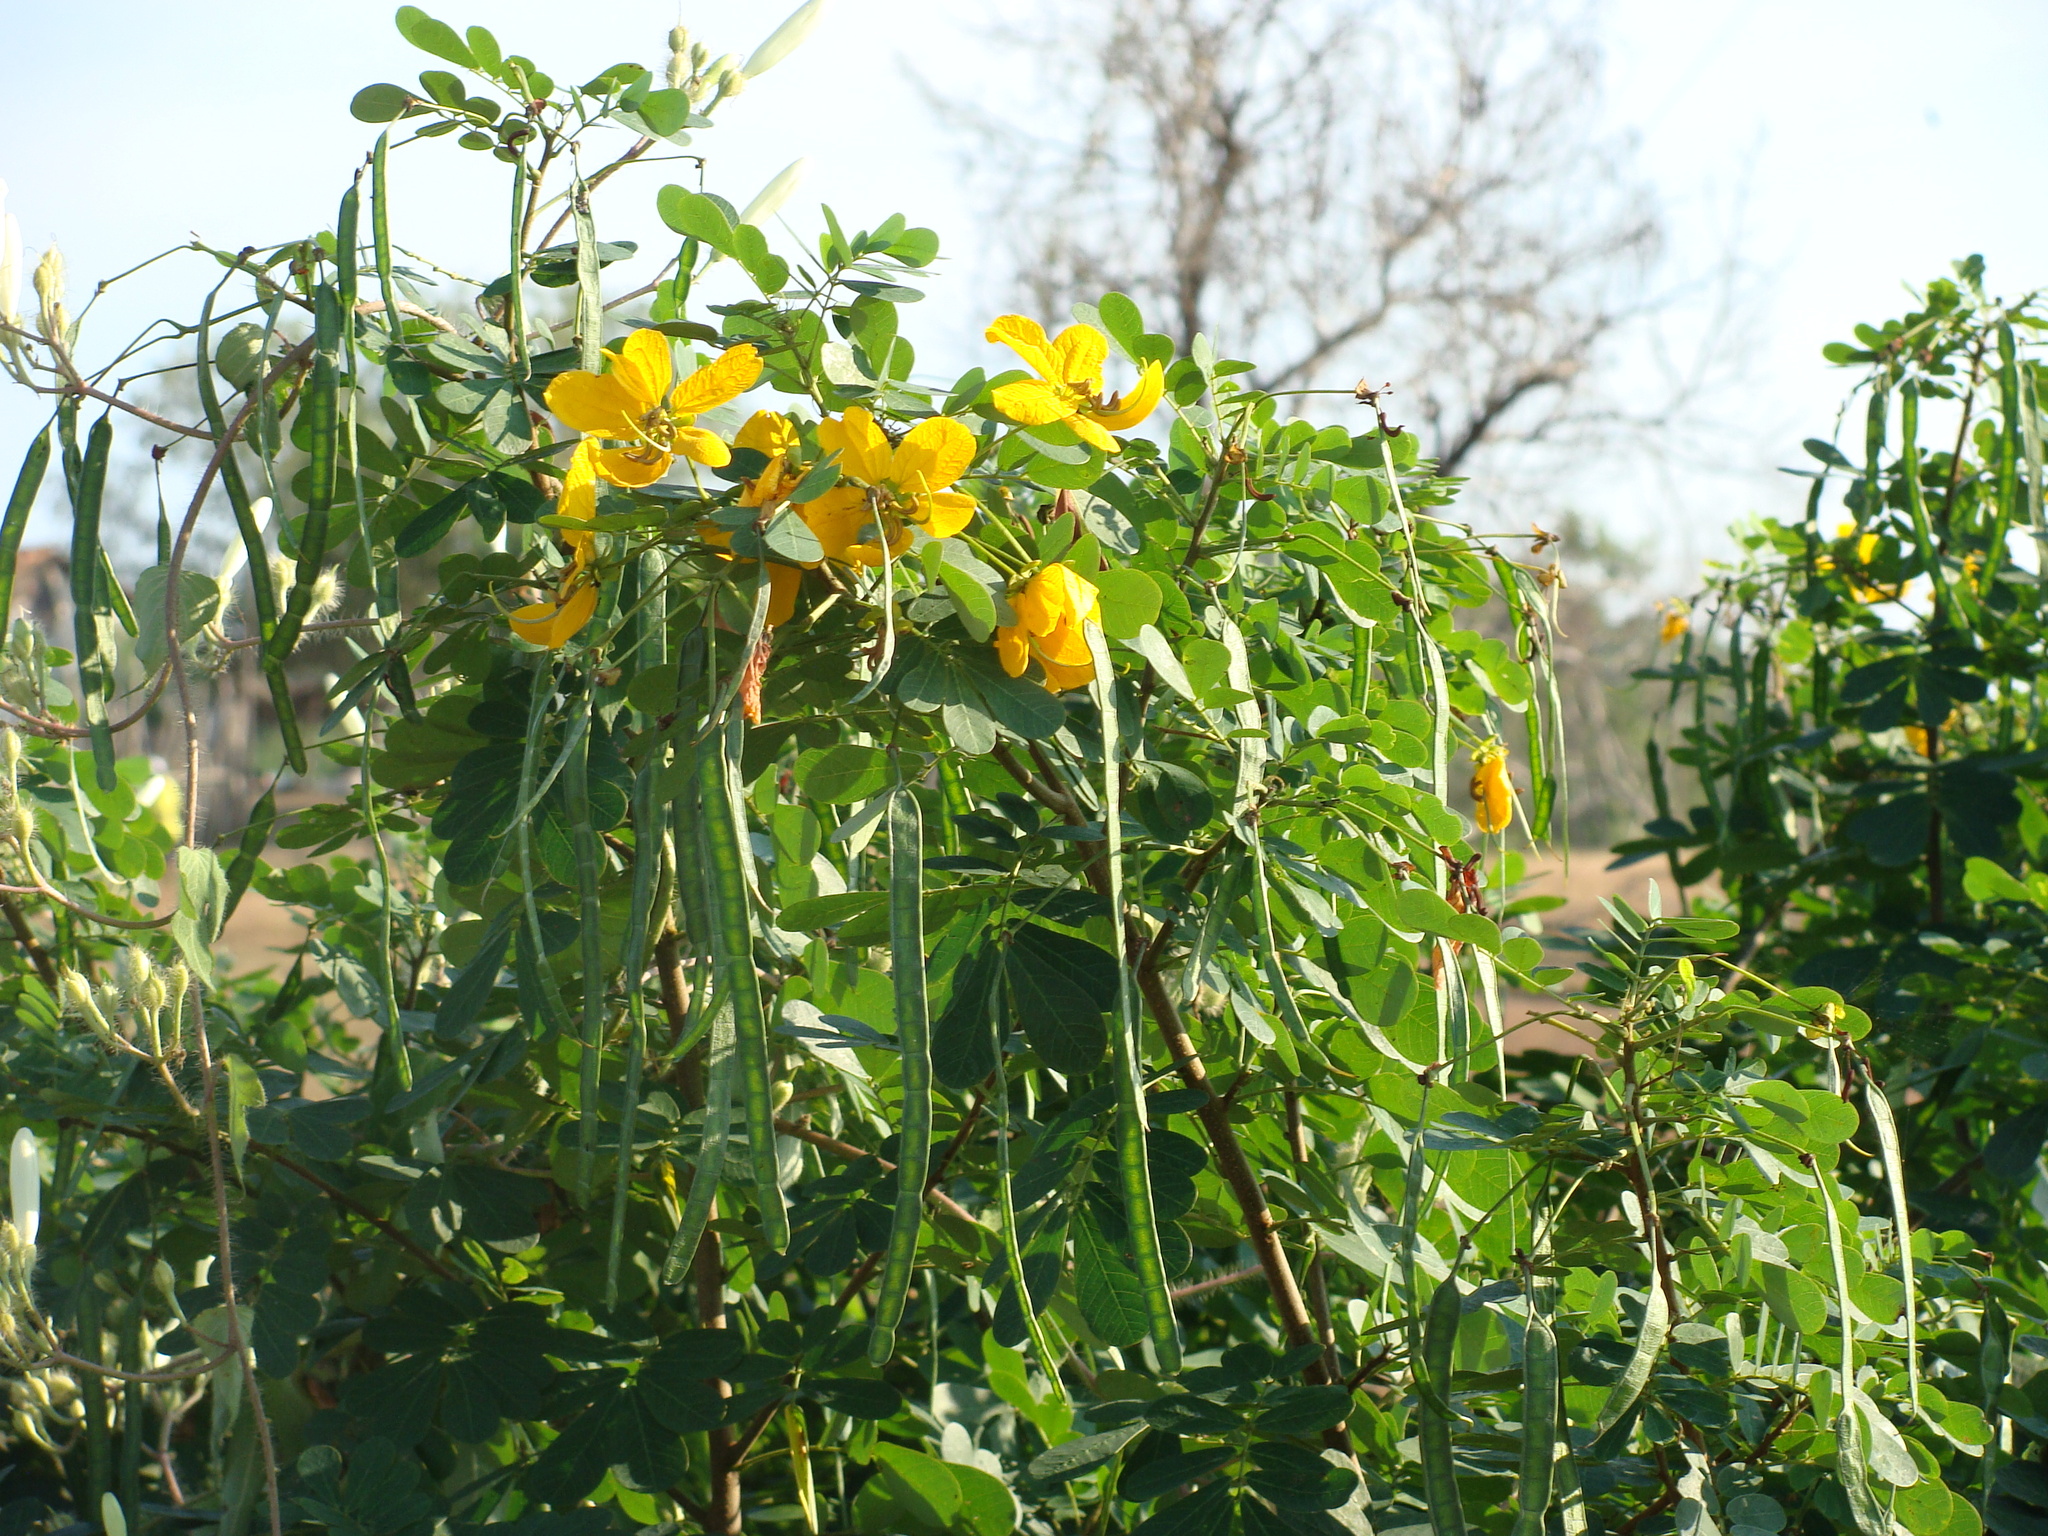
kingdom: Plantae
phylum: Tracheophyta
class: Magnoliopsida
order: Fabales
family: Fabaceae
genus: Senna
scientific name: Senna pallida
